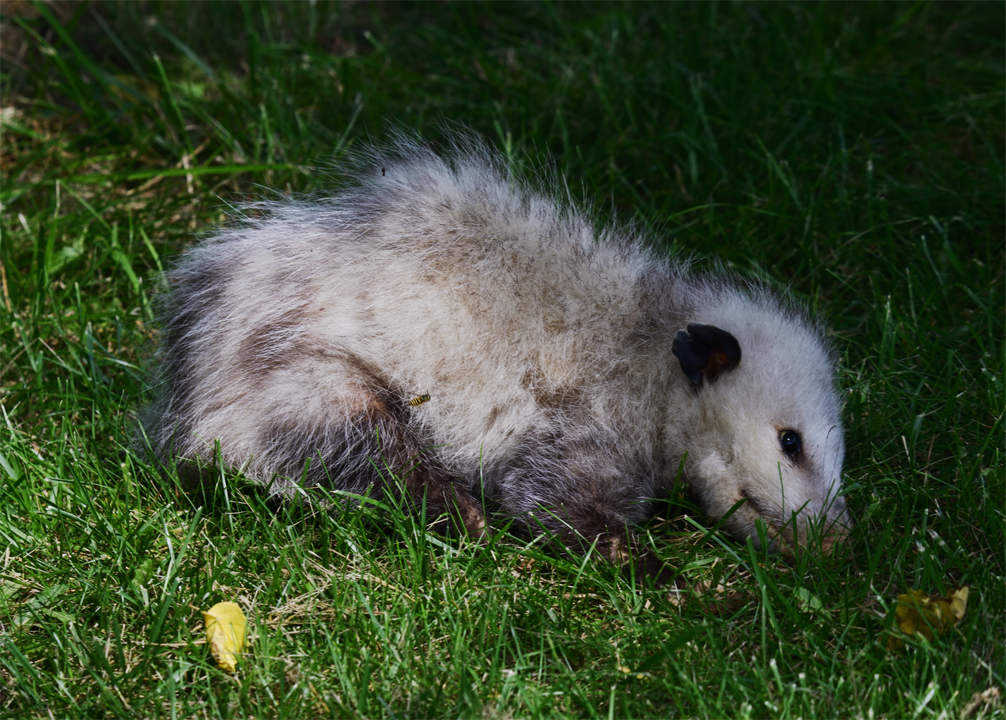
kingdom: Animalia
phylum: Chordata
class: Mammalia
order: Didelphimorphia
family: Didelphidae
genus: Didelphis
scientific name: Didelphis virginiana
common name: Virginia opossum
